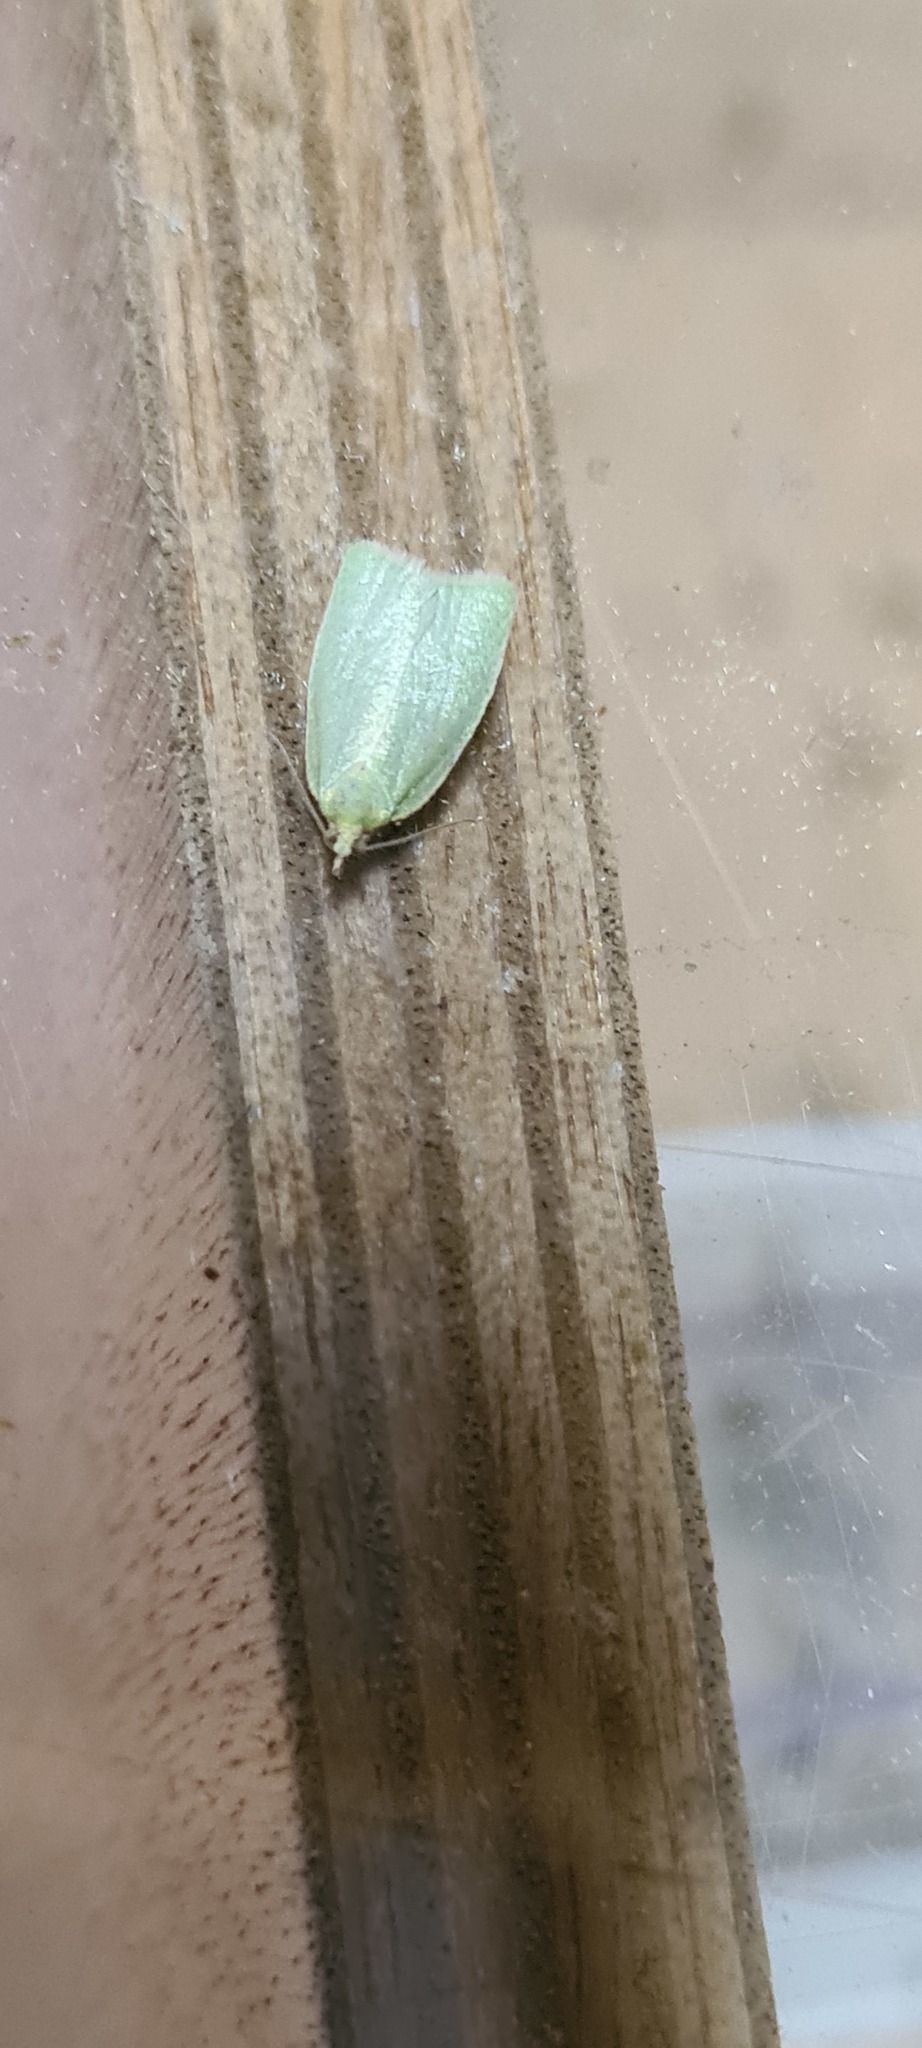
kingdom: Animalia
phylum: Arthropoda
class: Insecta
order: Lepidoptera
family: Tortricidae
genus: Tortrix
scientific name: Tortrix viridana
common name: Green oak tortrix
